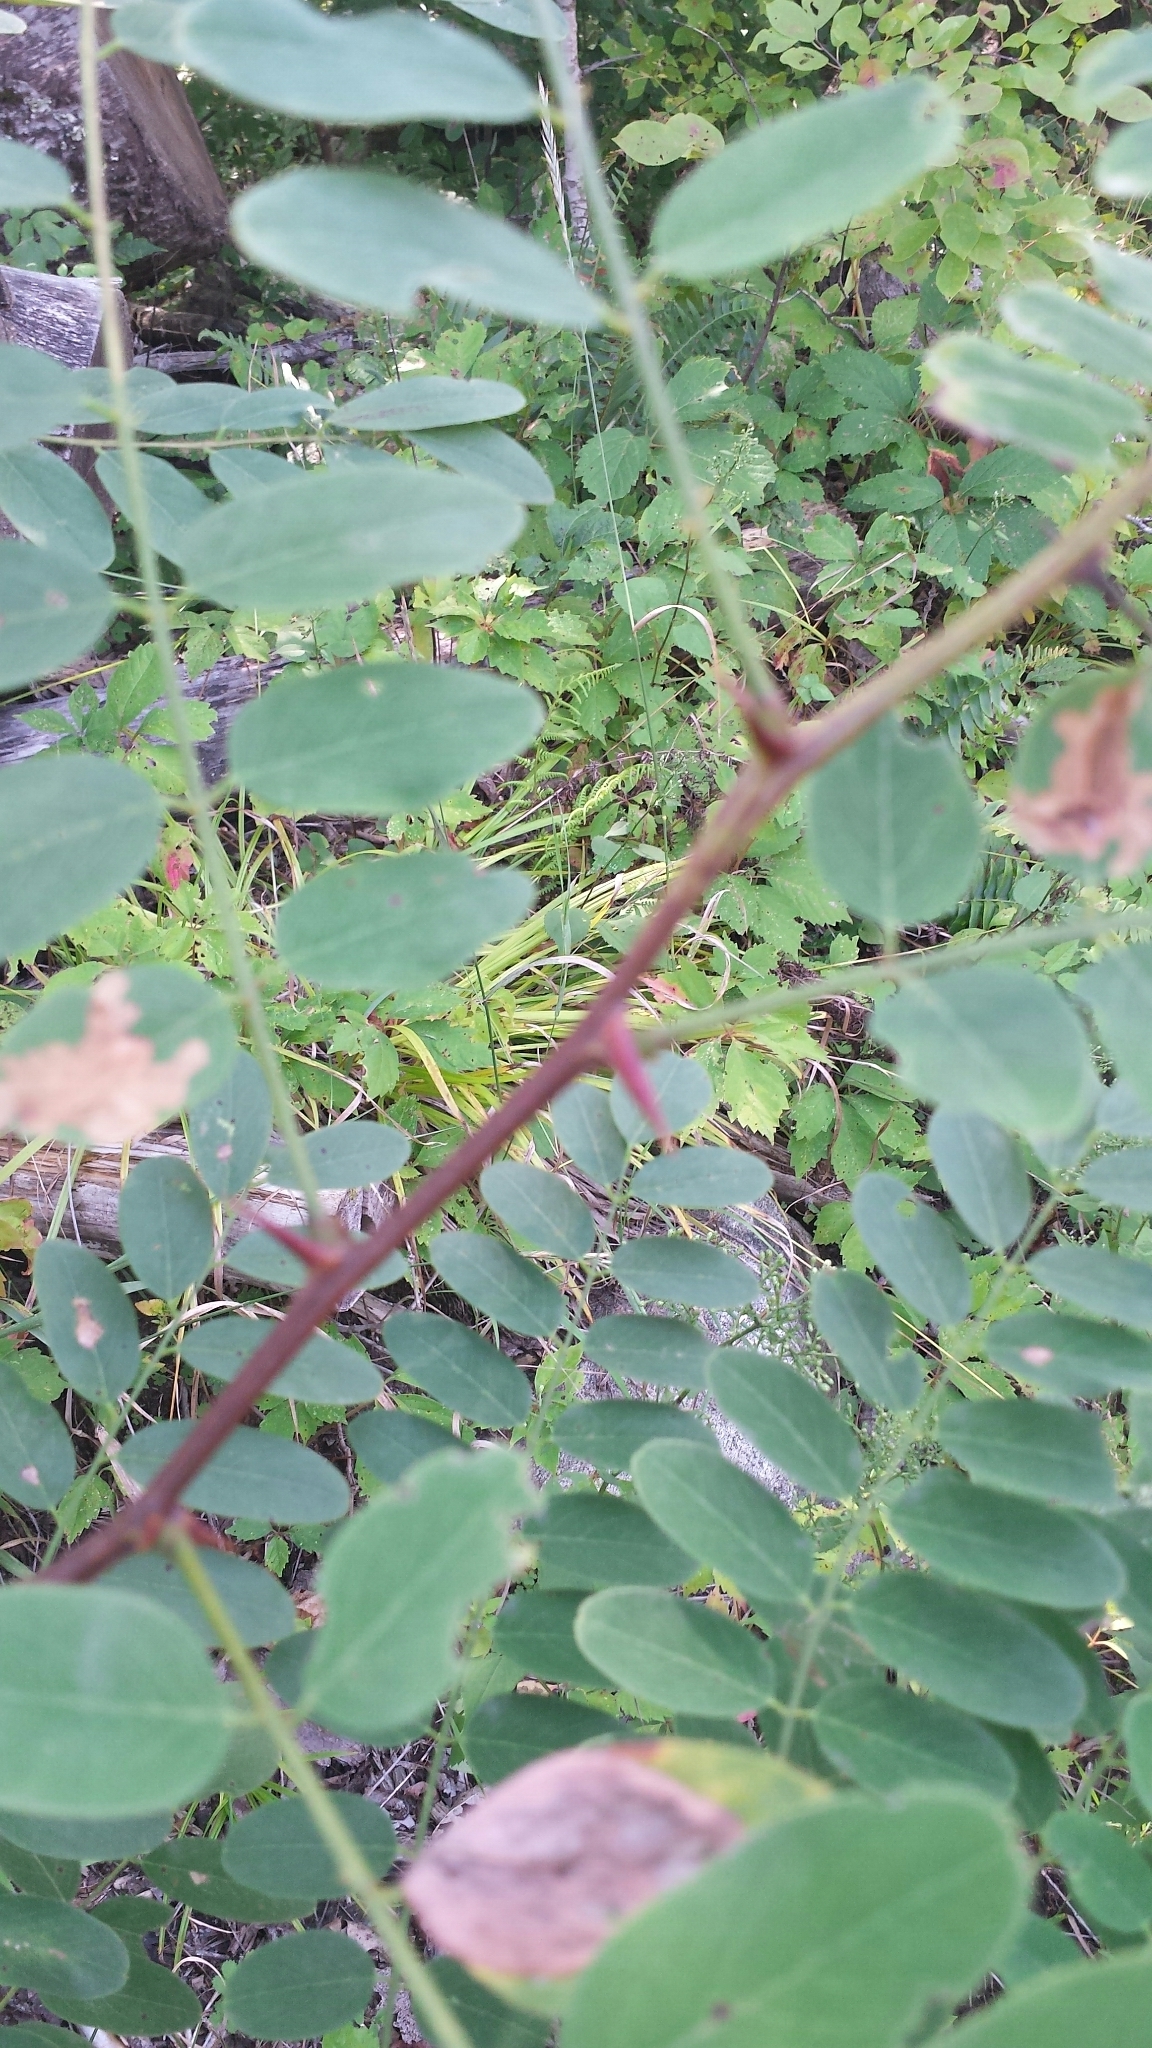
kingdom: Plantae
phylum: Tracheophyta
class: Magnoliopsida
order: Fabales
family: Fabaceae
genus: Robinia
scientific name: Robinia pseudoacacia
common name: Black locust
